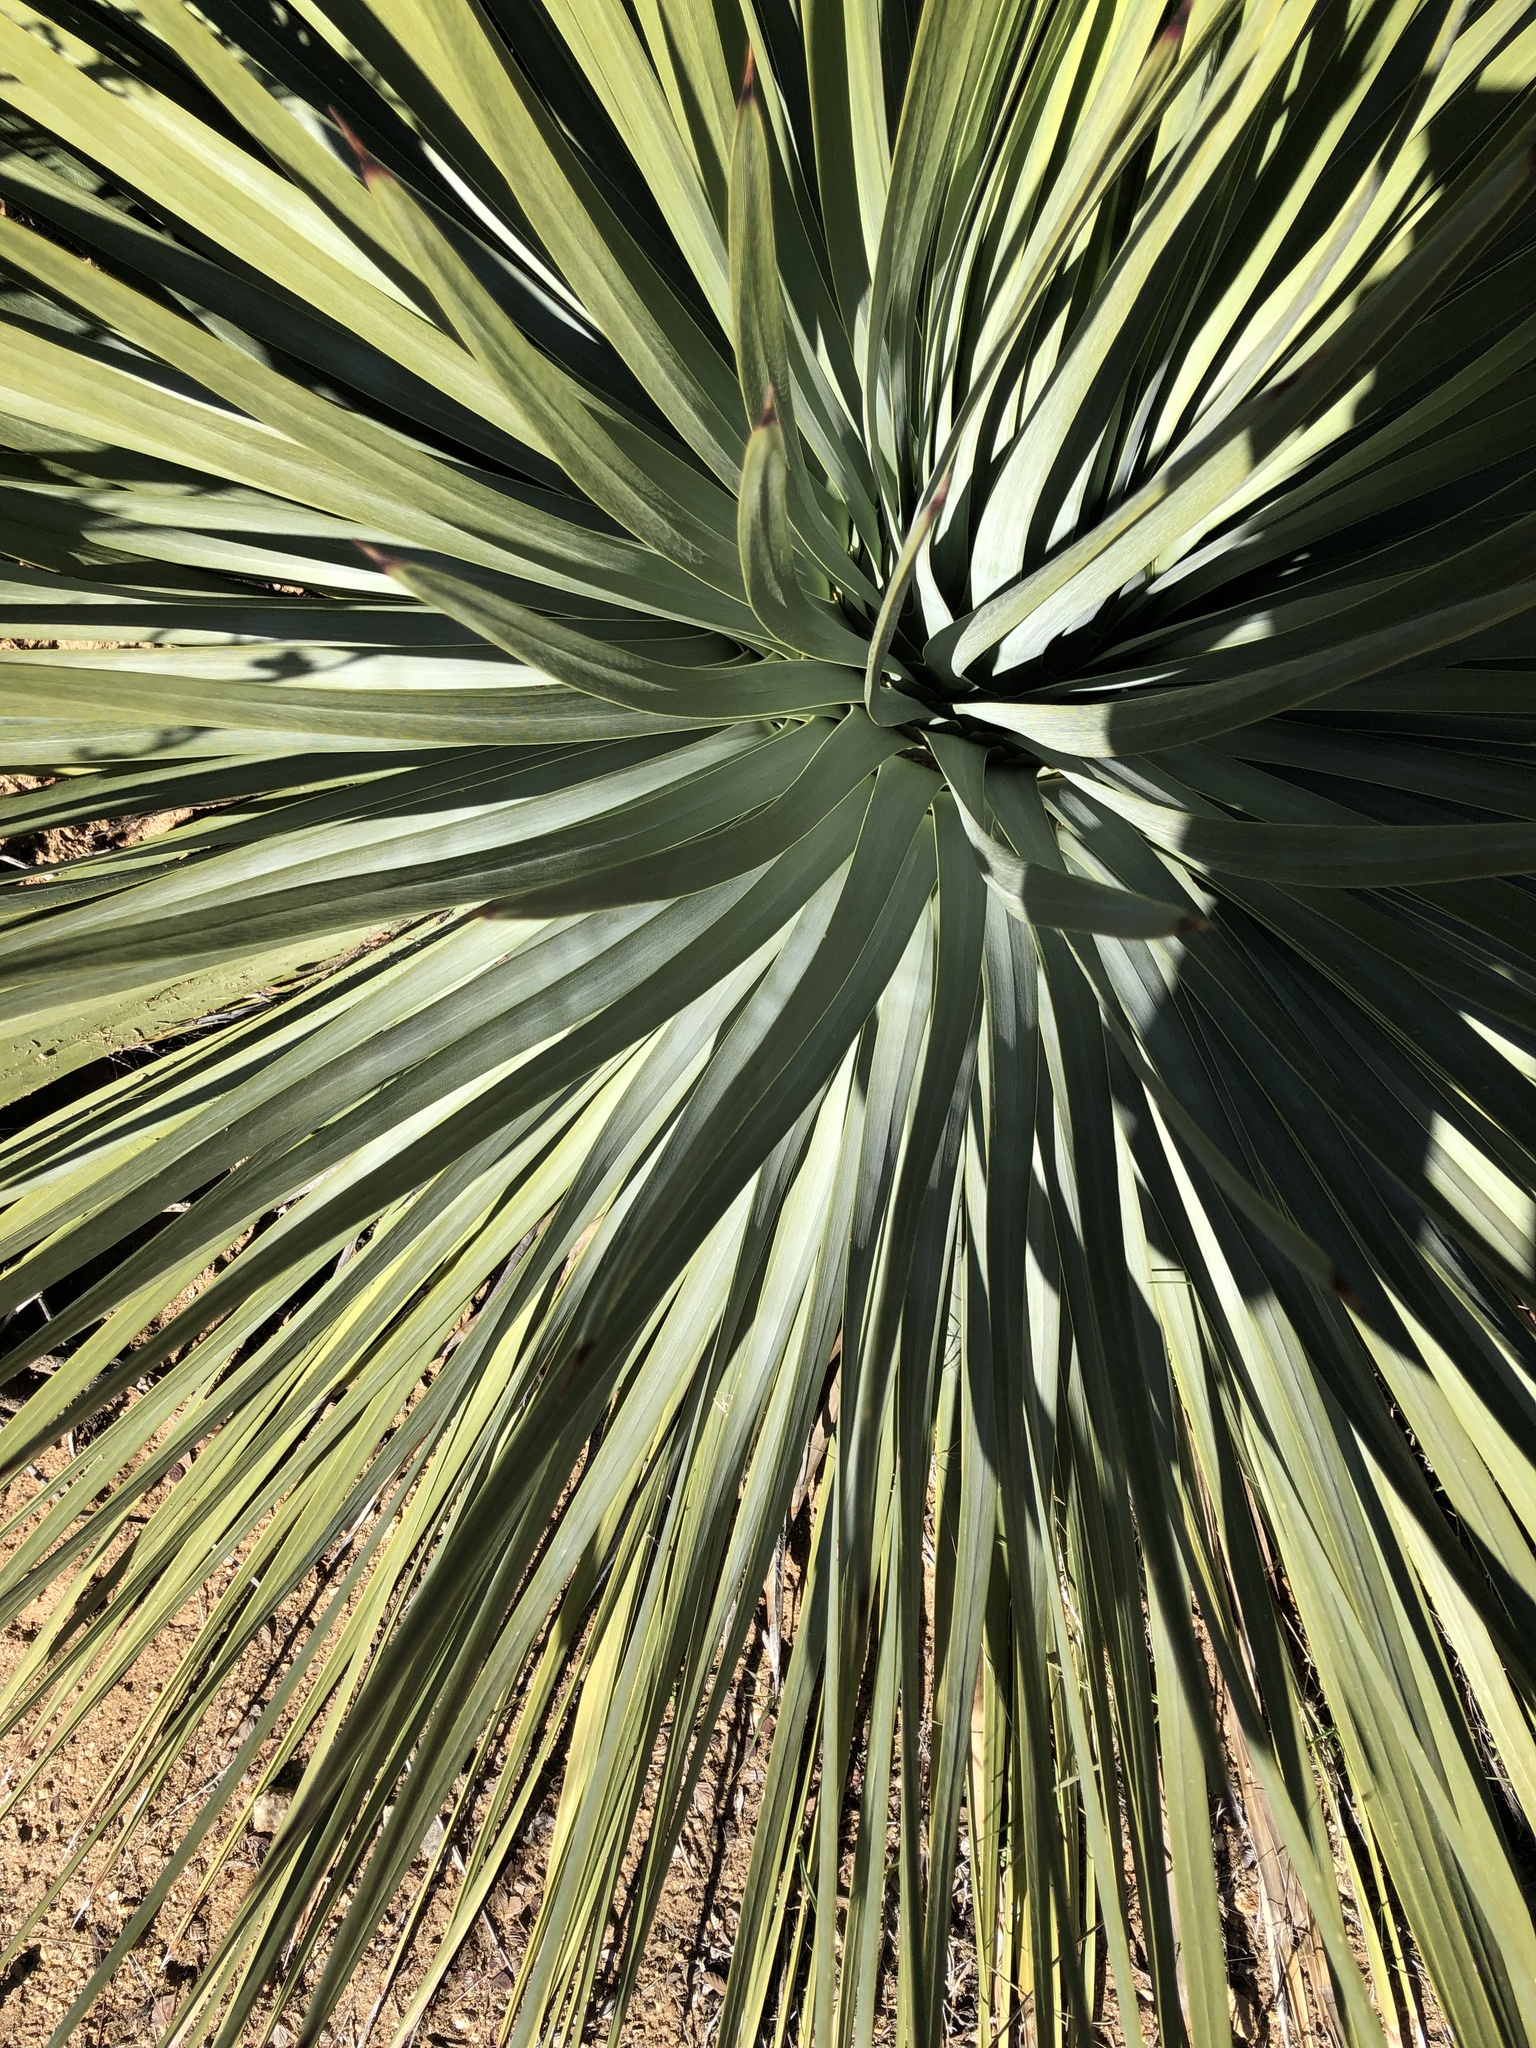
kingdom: Plantae
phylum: Tracheophyta
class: Liliopsida
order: Asparagales
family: Asparagaceae
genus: Hesperoyucca
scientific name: Hesperoyucca whipplei
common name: Our lord's-candle
